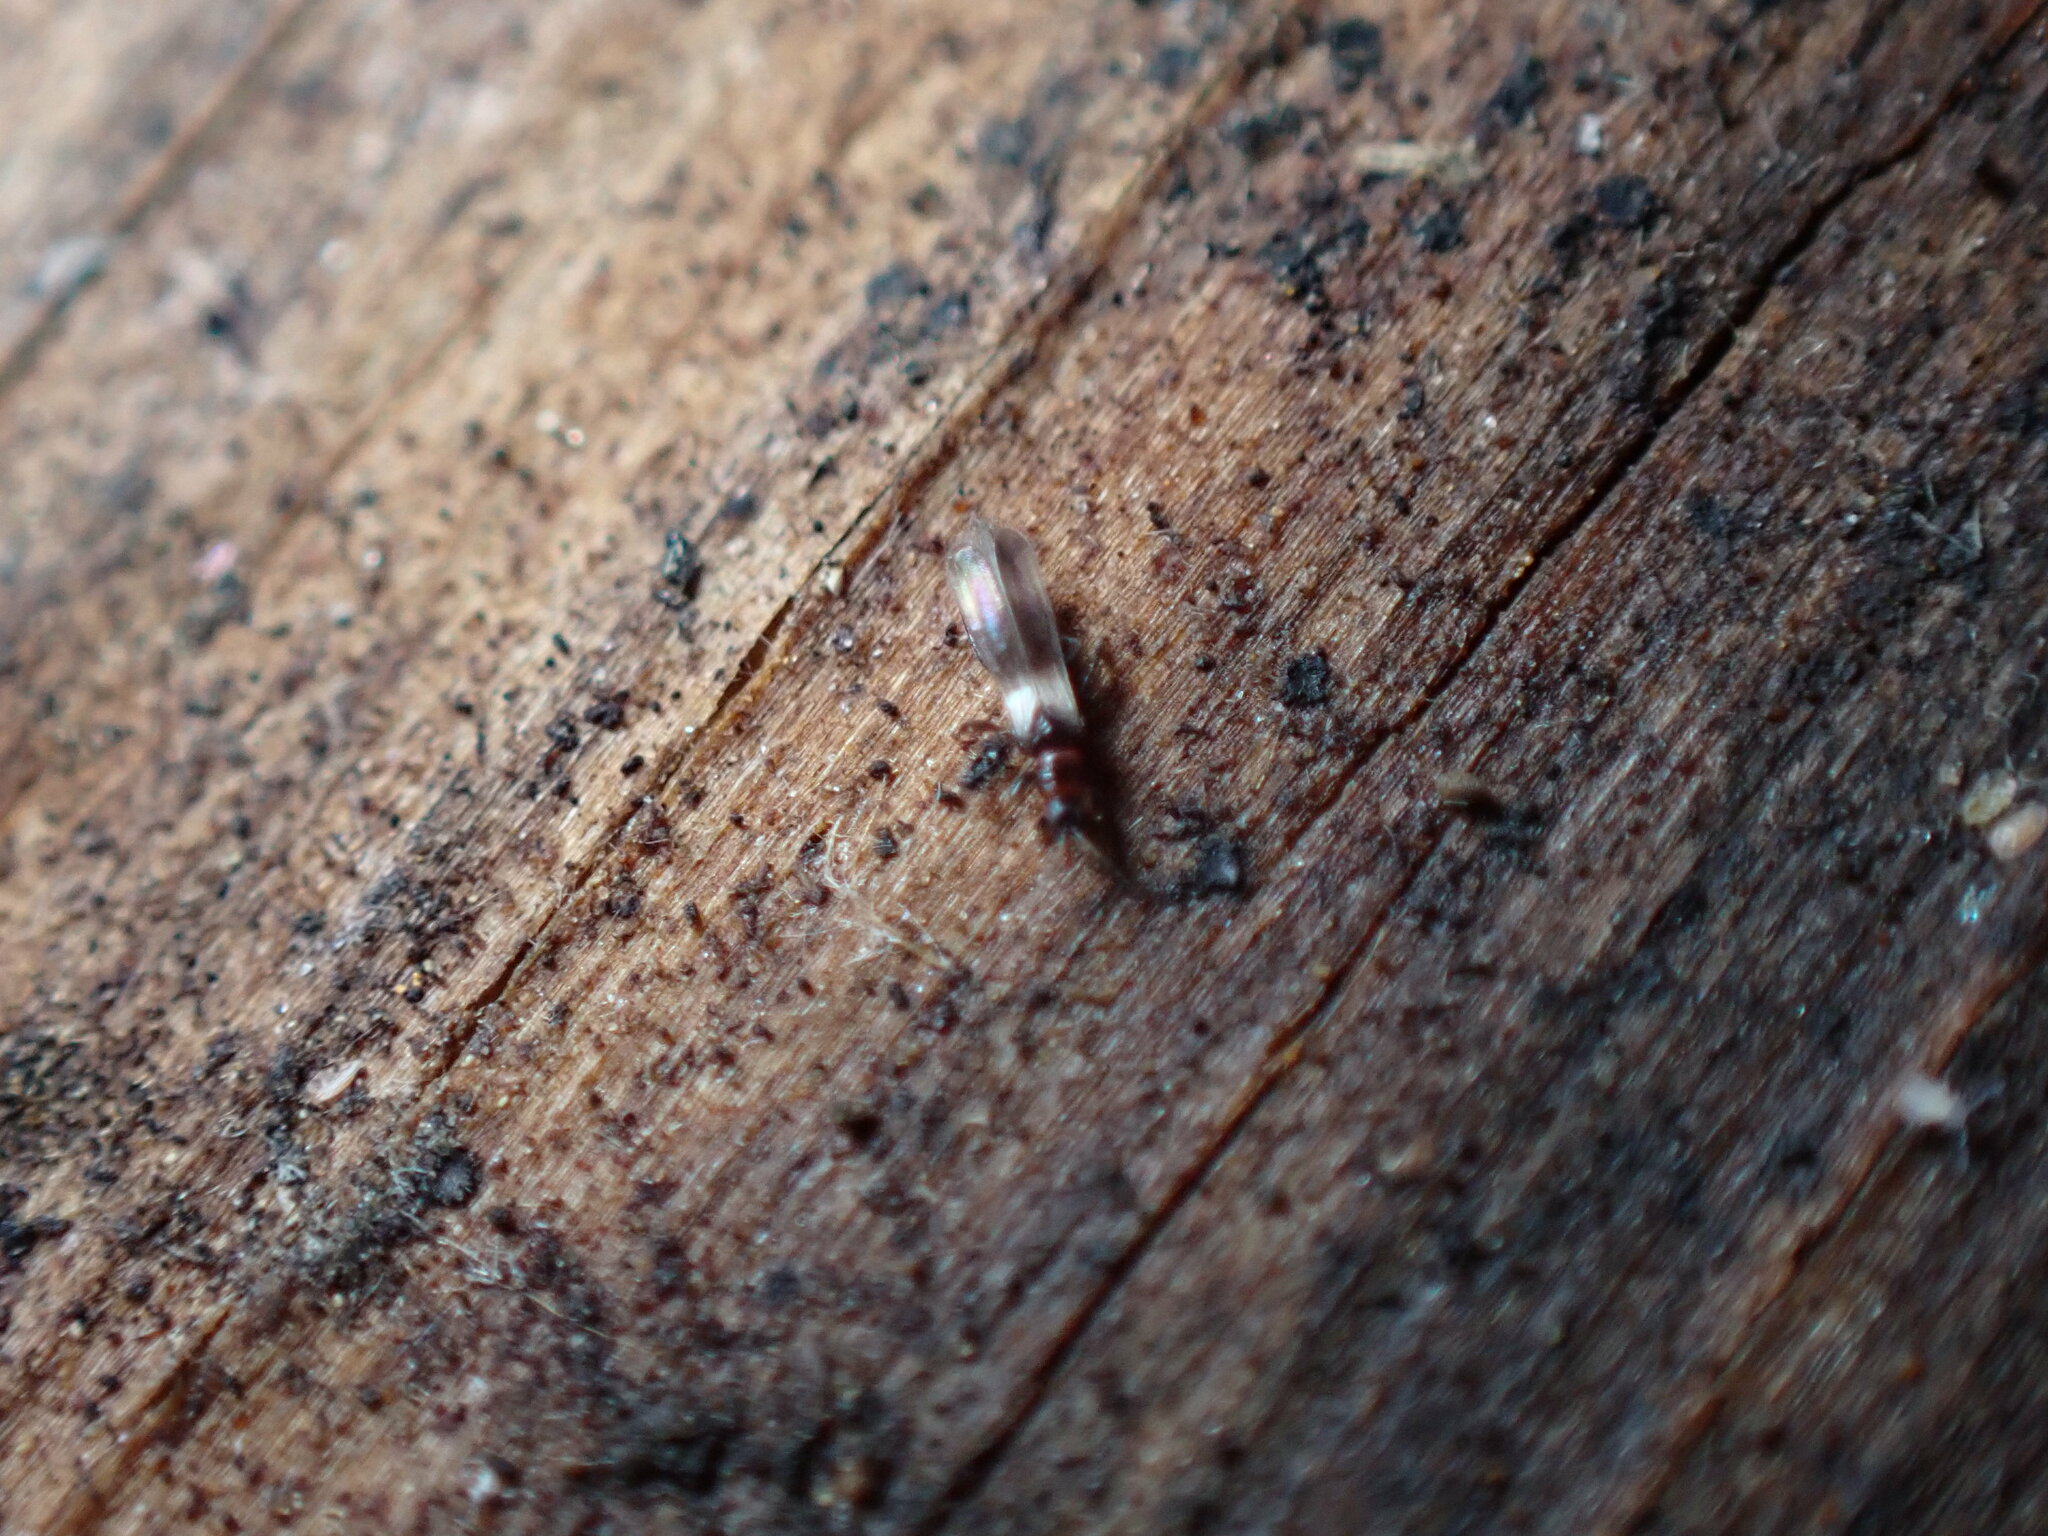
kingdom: Animalia
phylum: Arthropoda
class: Insecta
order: Thysanoptera
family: Aeolothripidae
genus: Orothrips
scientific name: Orothrips yosemitii
